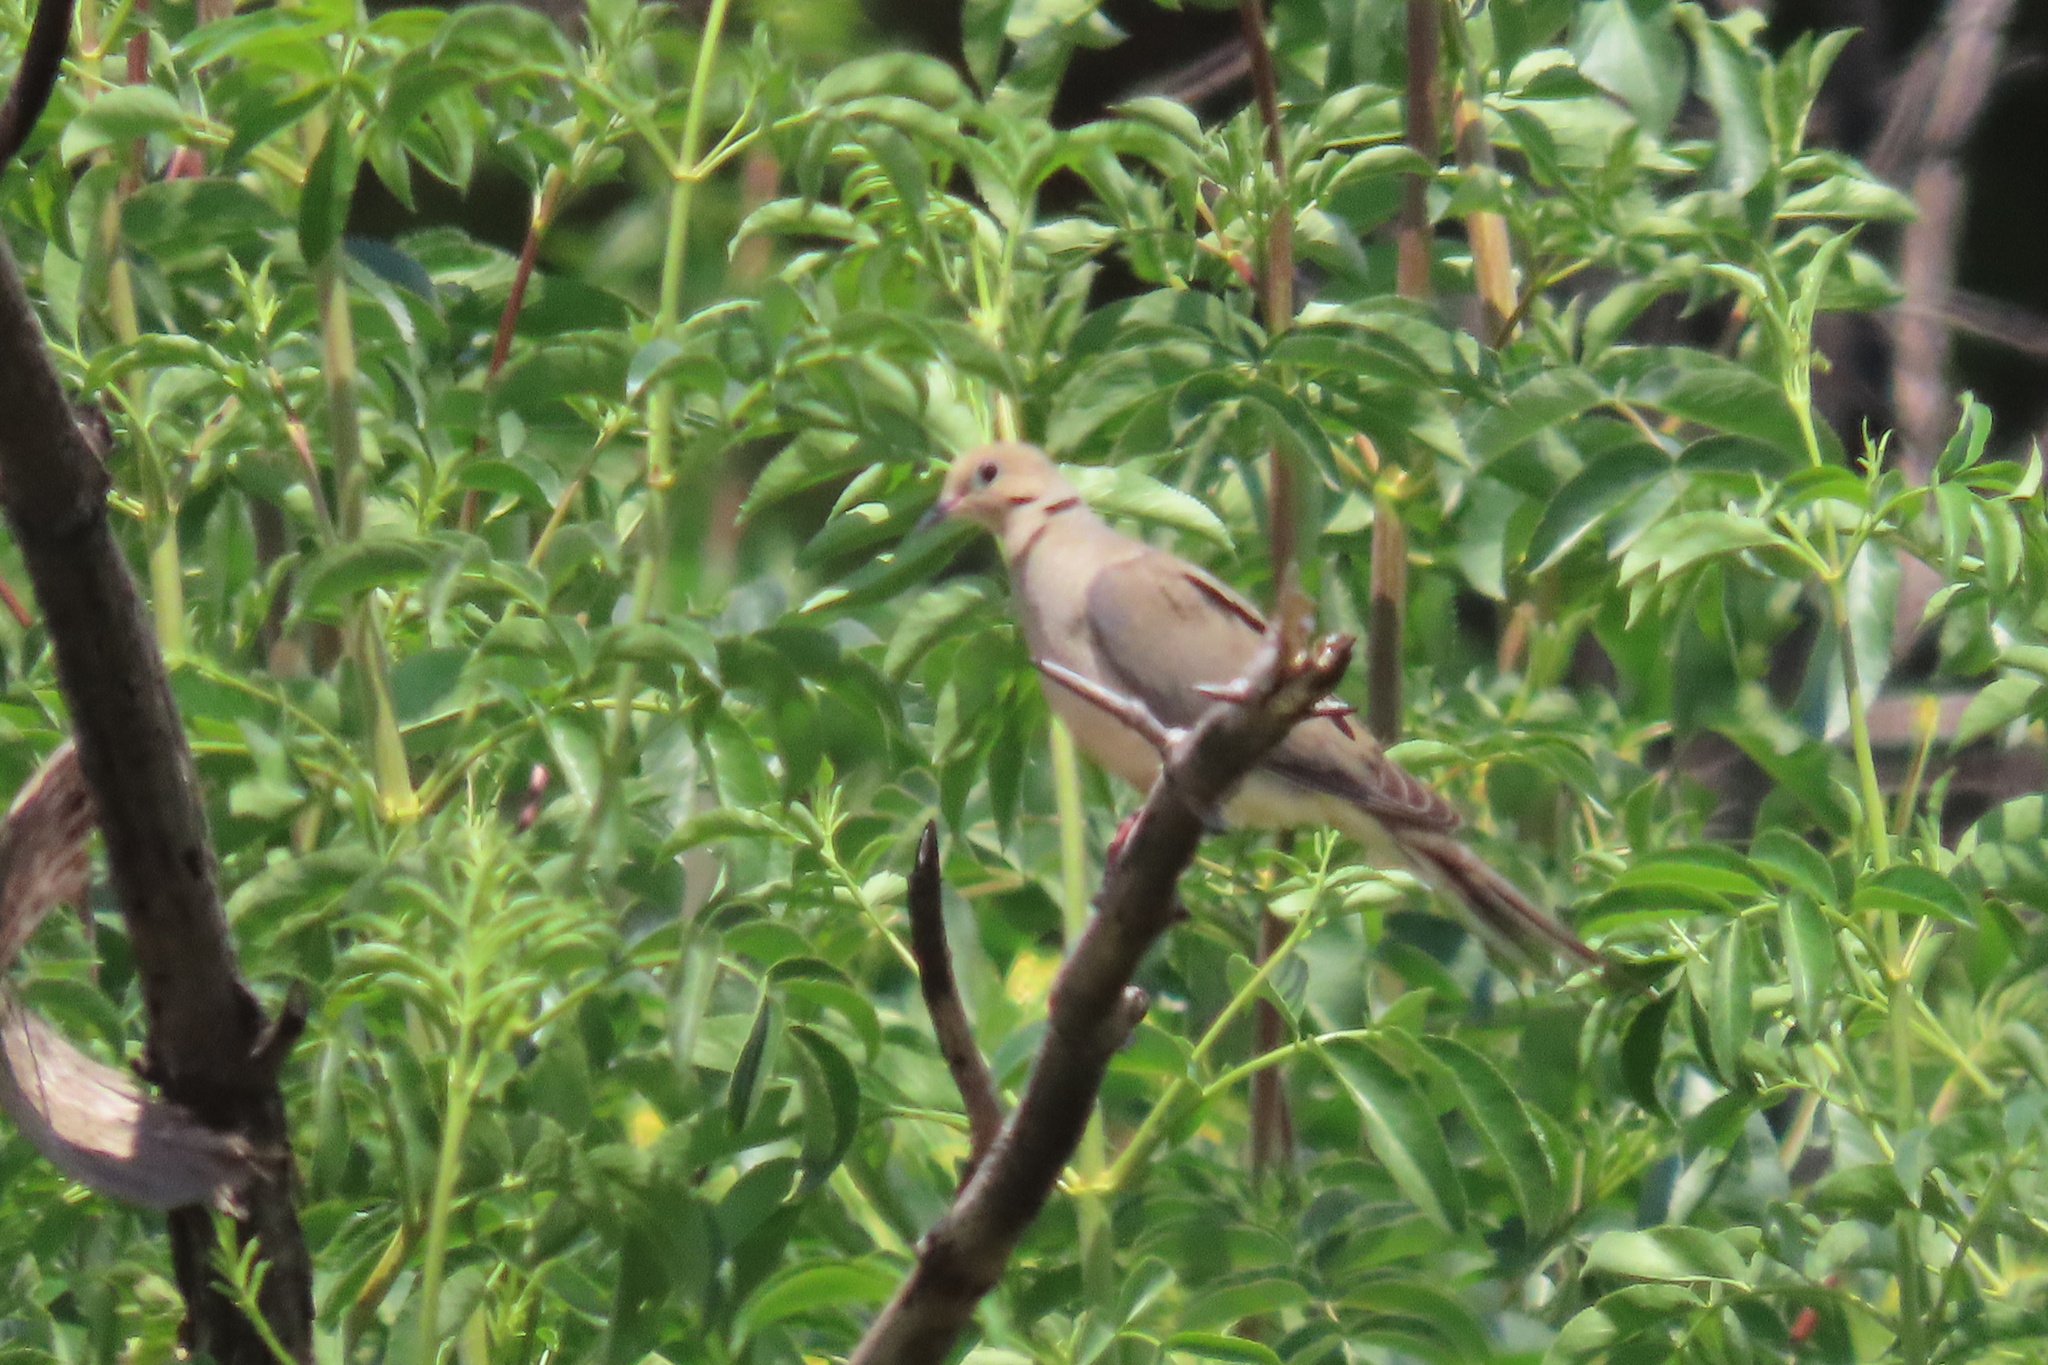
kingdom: Animalia
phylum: Chordata
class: Aves
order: Columbiformes
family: Columbidae
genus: Zenaida
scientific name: Zenaida macroura
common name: Mourning dove
